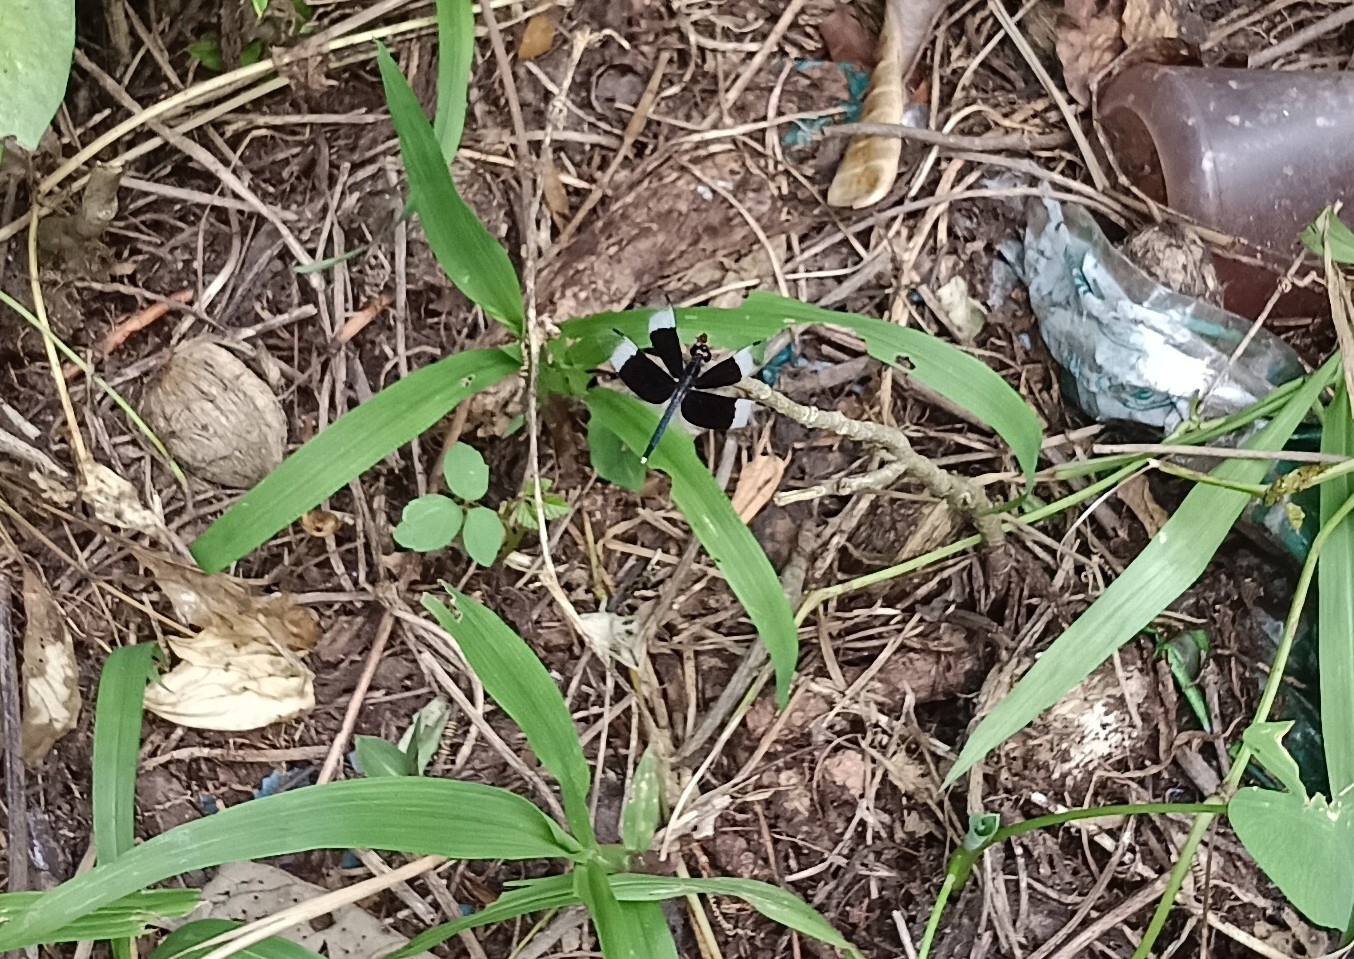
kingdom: Animalia
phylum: Arthropoda
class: Insecta
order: Odonata
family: Libellulidae
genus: Neurothemis
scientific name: Neurothemis tullia
